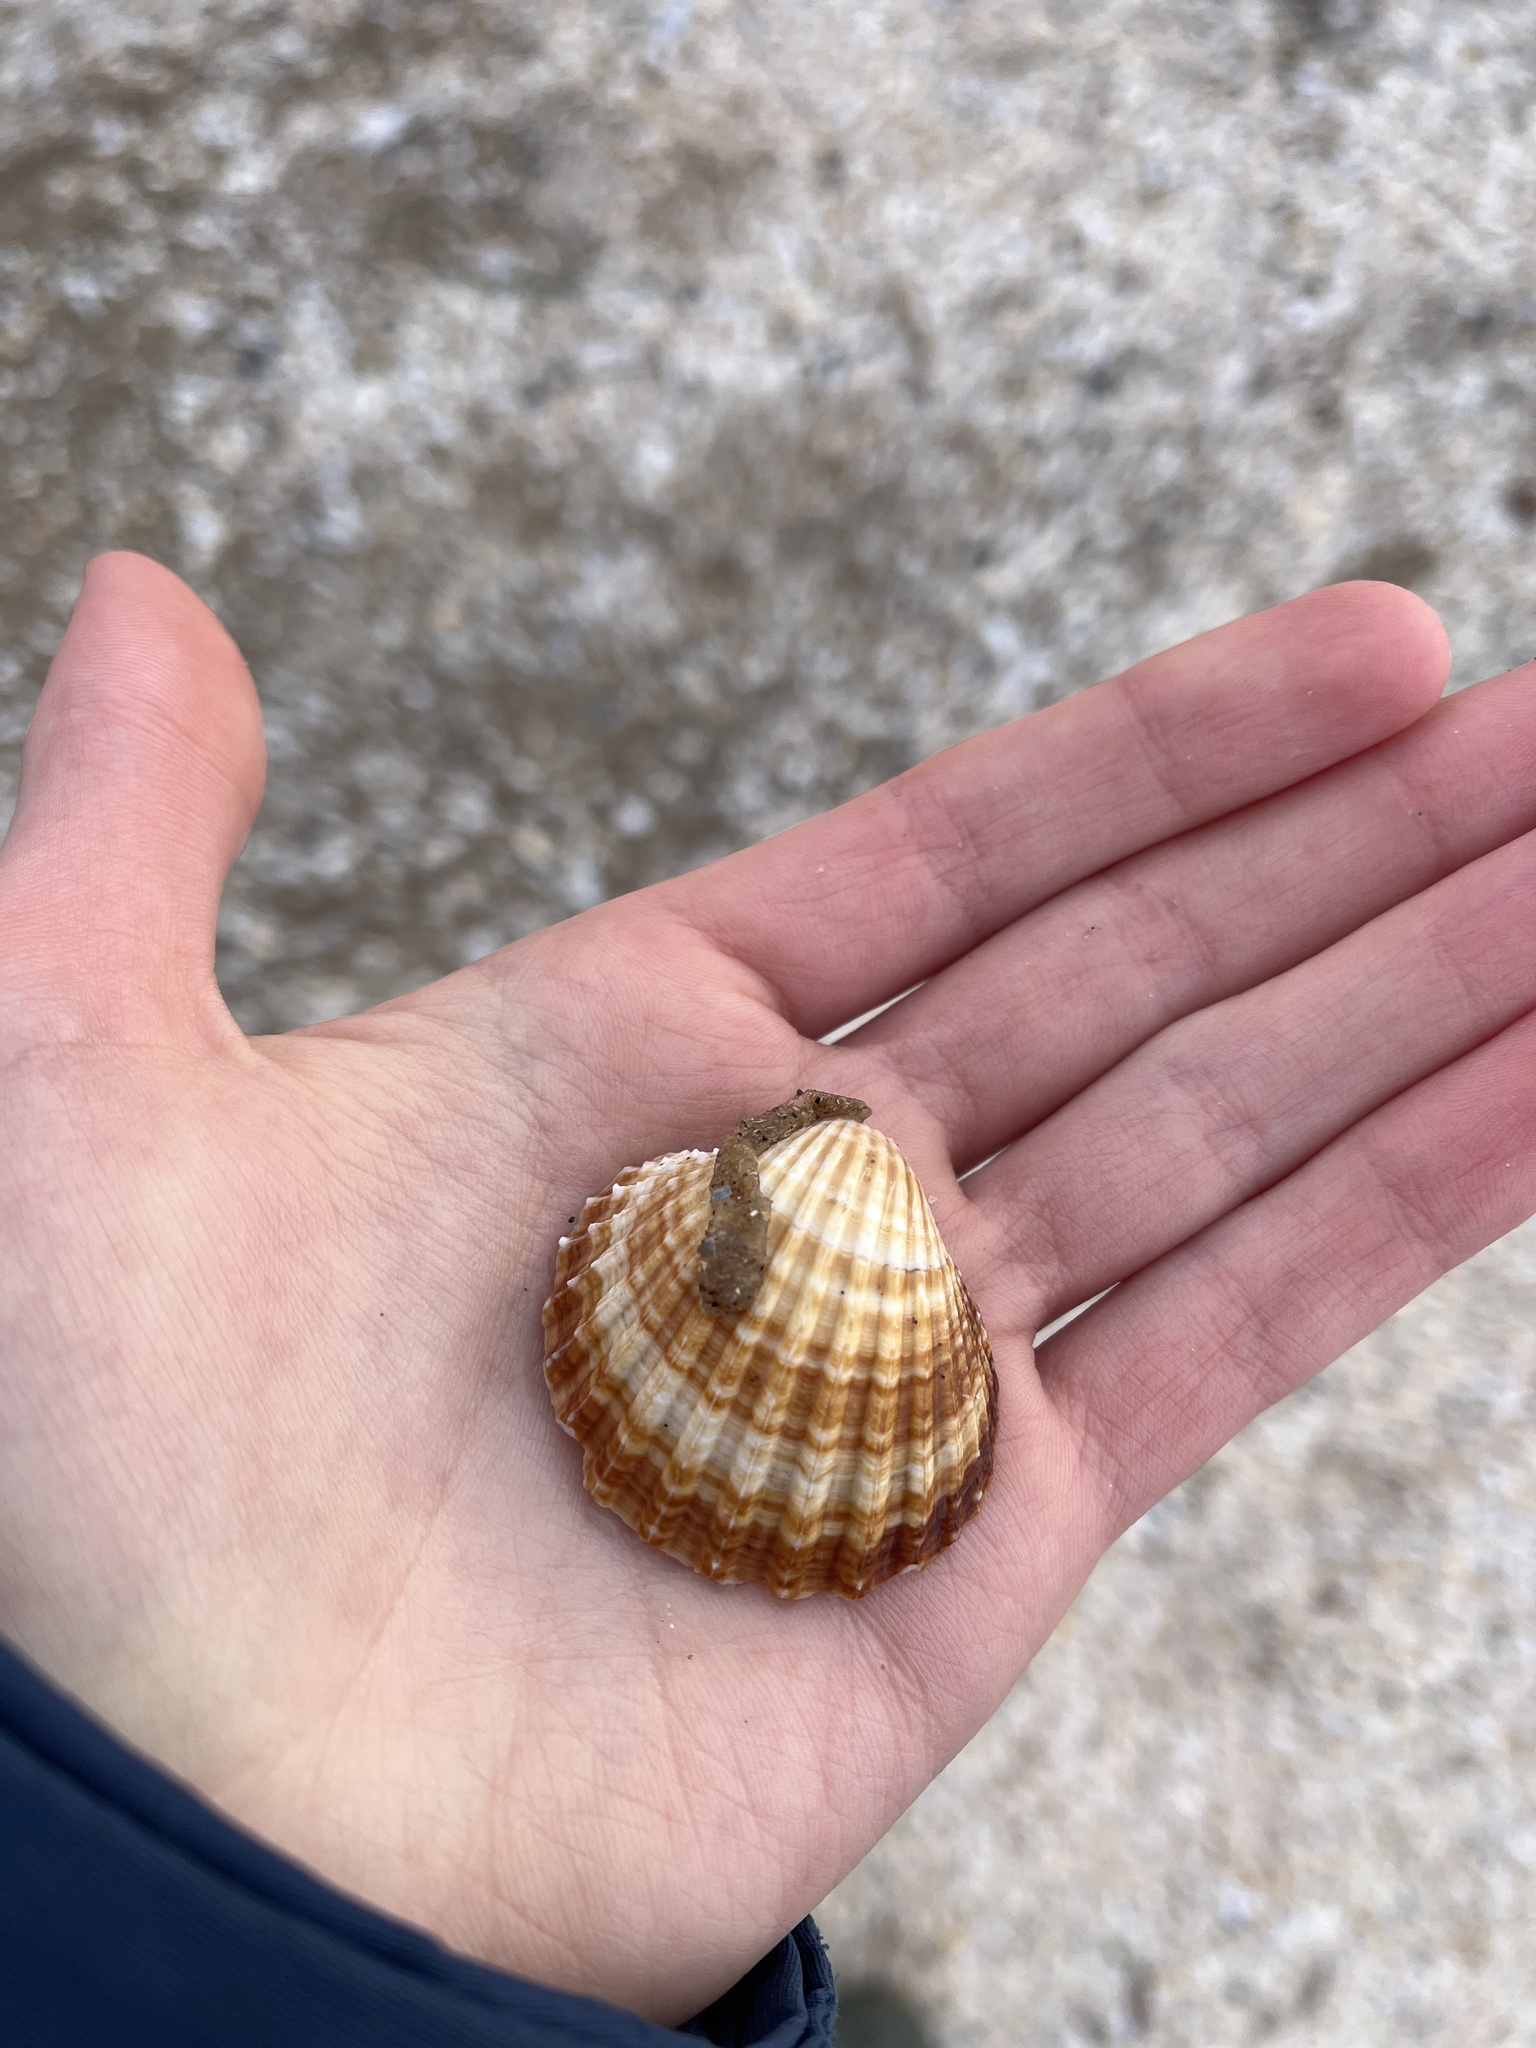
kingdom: Animalia
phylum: Mollusca
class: Bivalvia
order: Cardiida
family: Cardiidae
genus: Acanthocardia
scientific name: Acanthocardia echinata
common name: Prickly cockle
